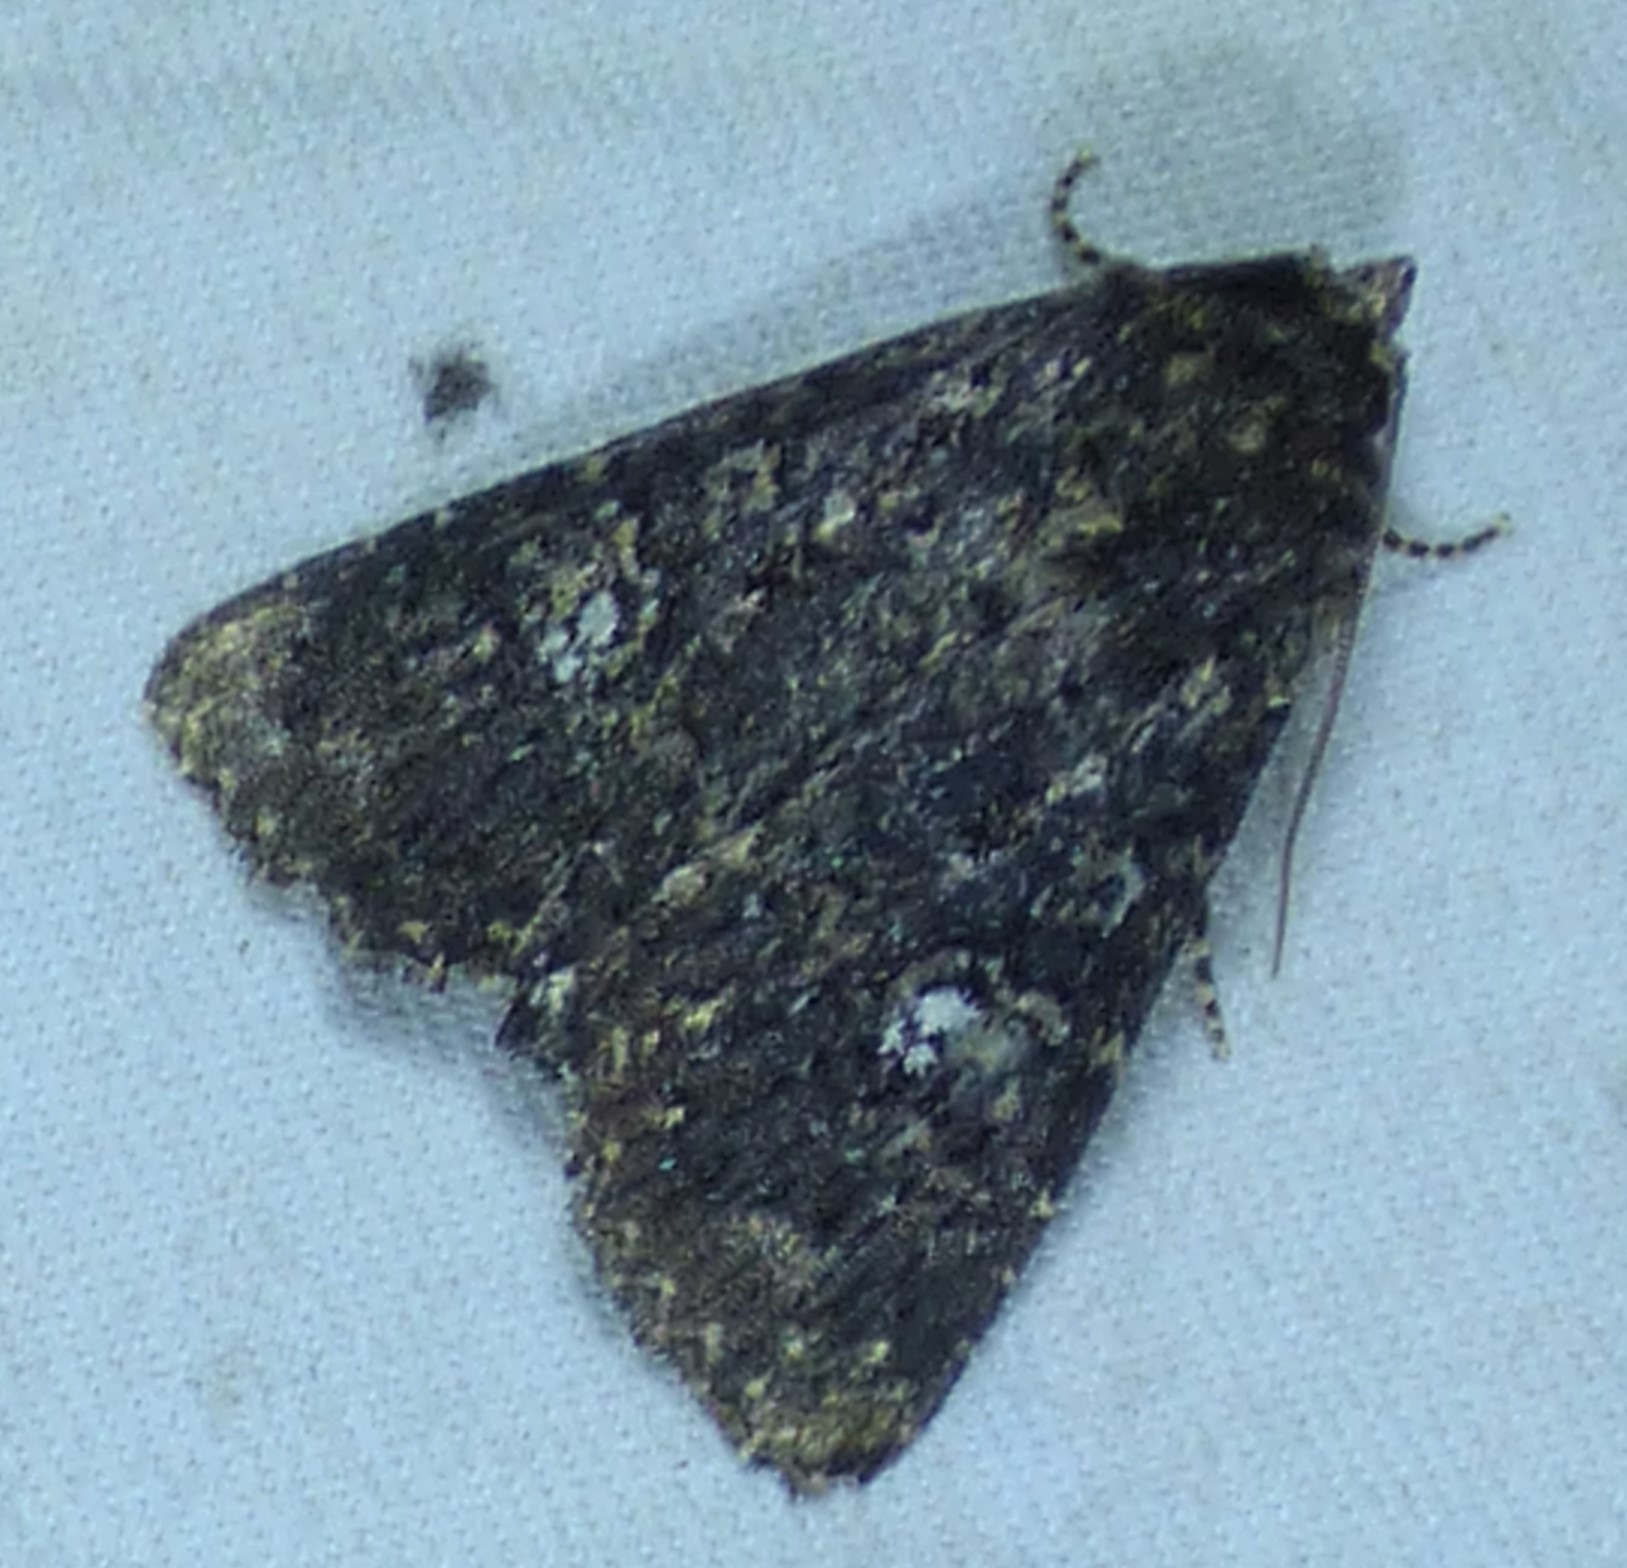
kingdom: Animalia
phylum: Arthropoda
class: Insecta
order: Lepidoptera
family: Noctuidae
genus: Condica
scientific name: Condica vecors
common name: Dusky groundling
